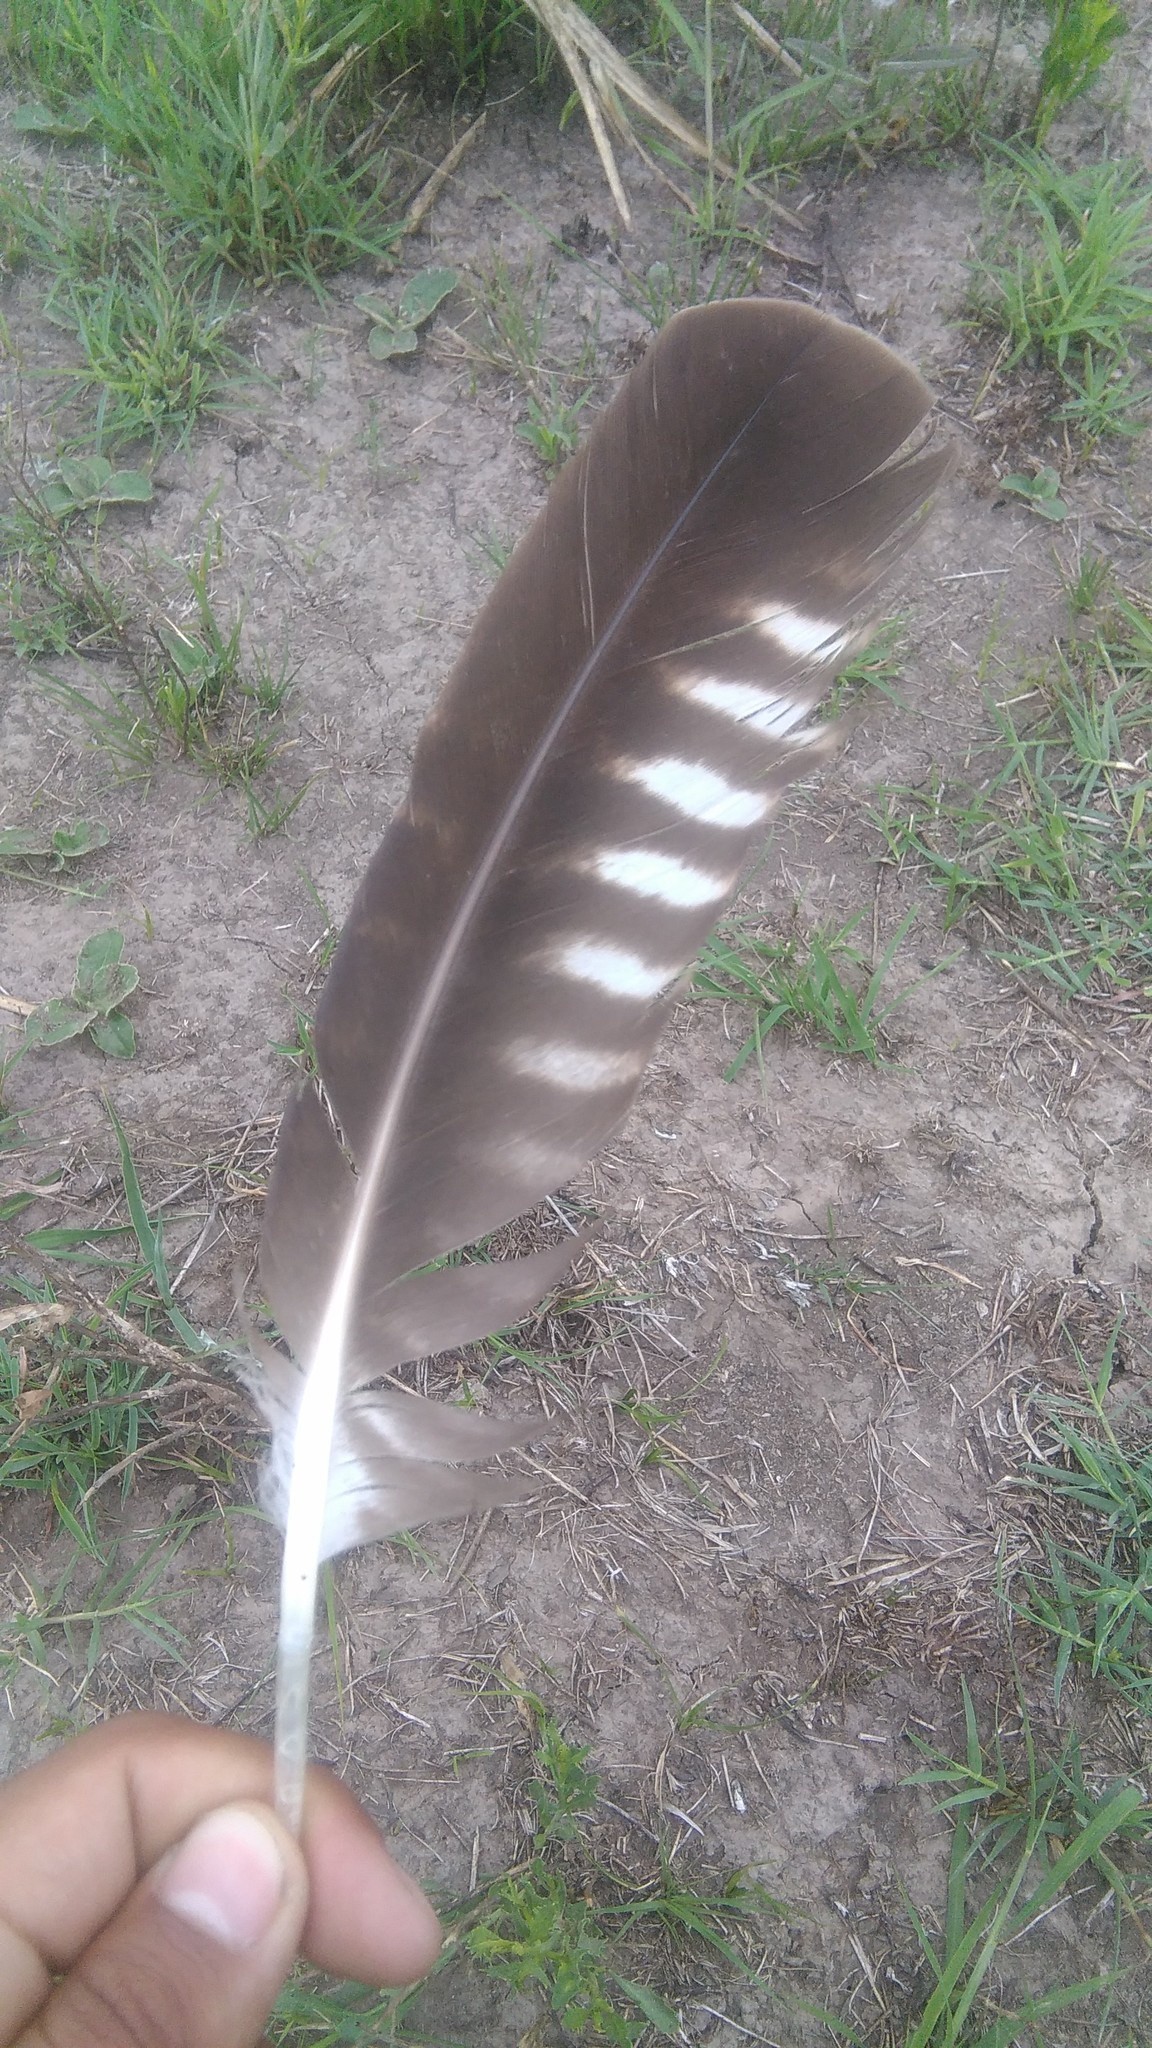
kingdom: Animalia
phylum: Chordata
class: Aves
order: Falconiformes
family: Falconidae
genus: Caracara
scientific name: Caracara plancus
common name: Southern caracara
